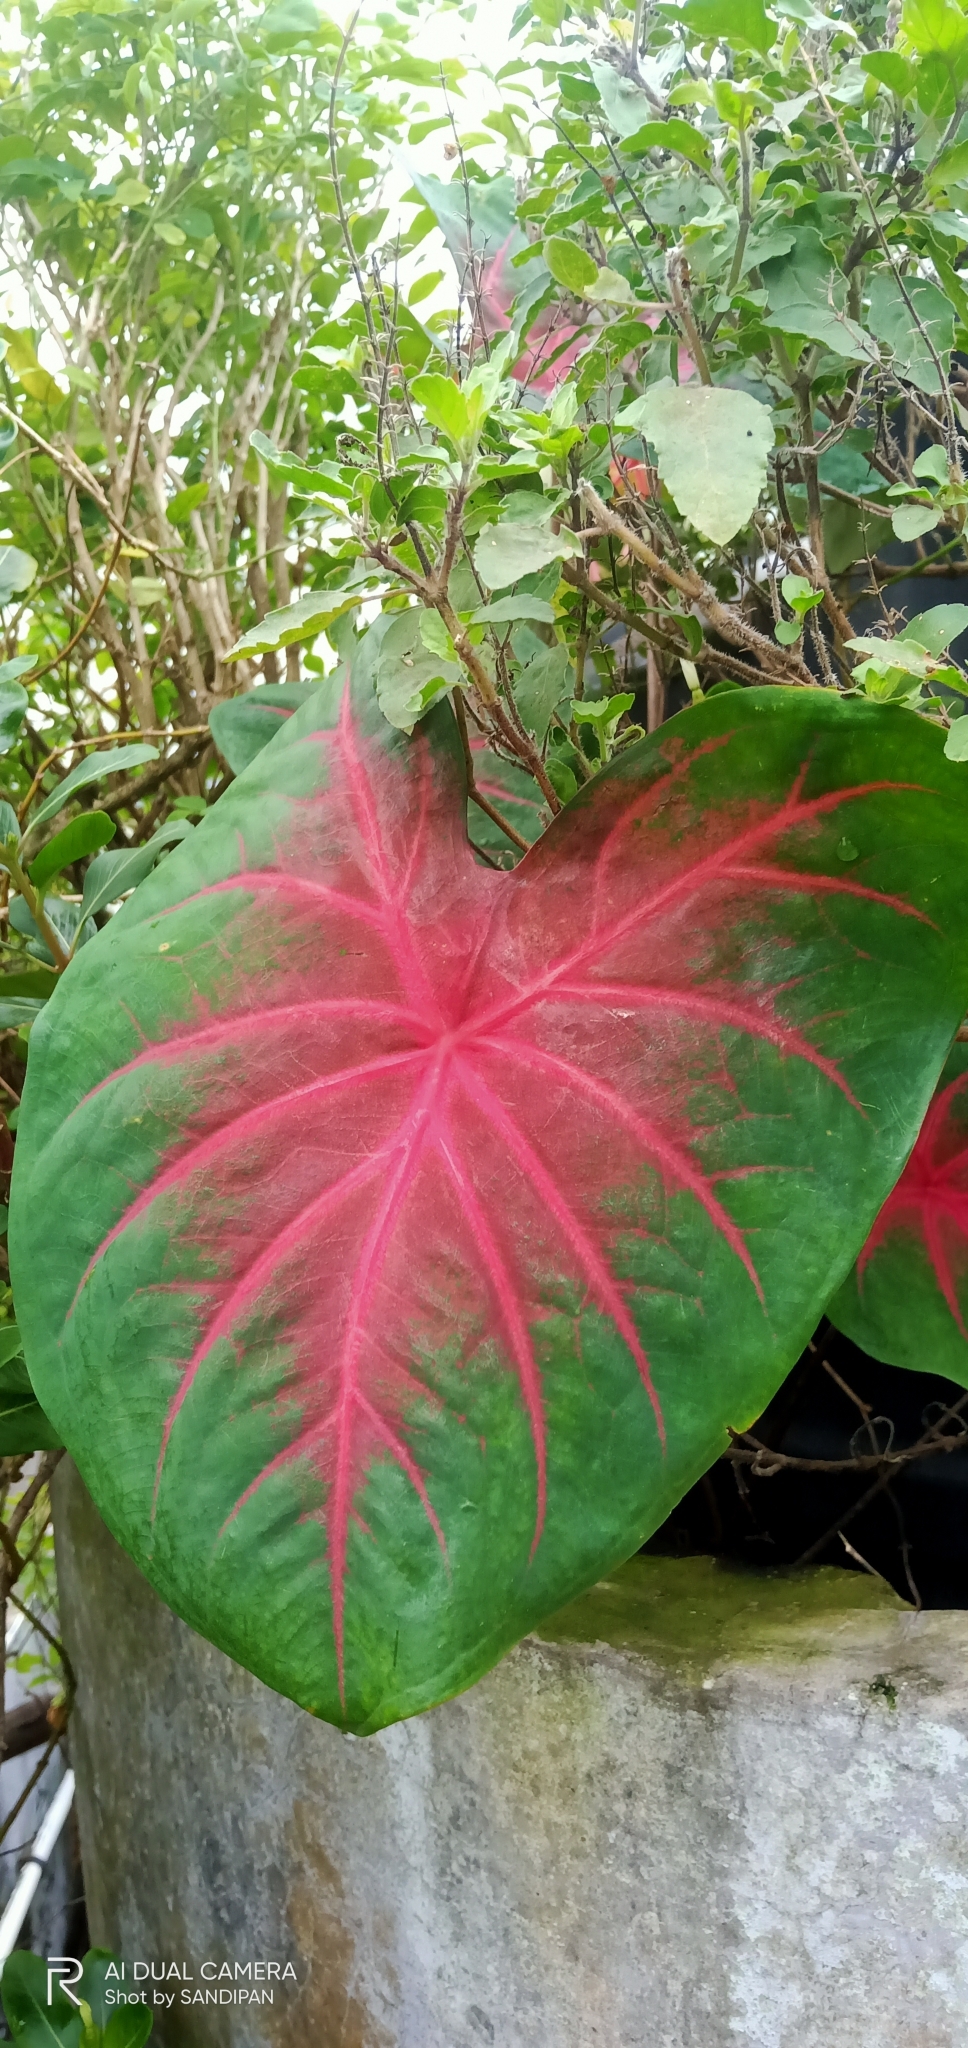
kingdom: Plantae
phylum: Tracheophyta
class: Liliopsida
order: Alismatales
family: Araceae
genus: Caladium
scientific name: Caladium bicolor
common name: Artist's pallet
